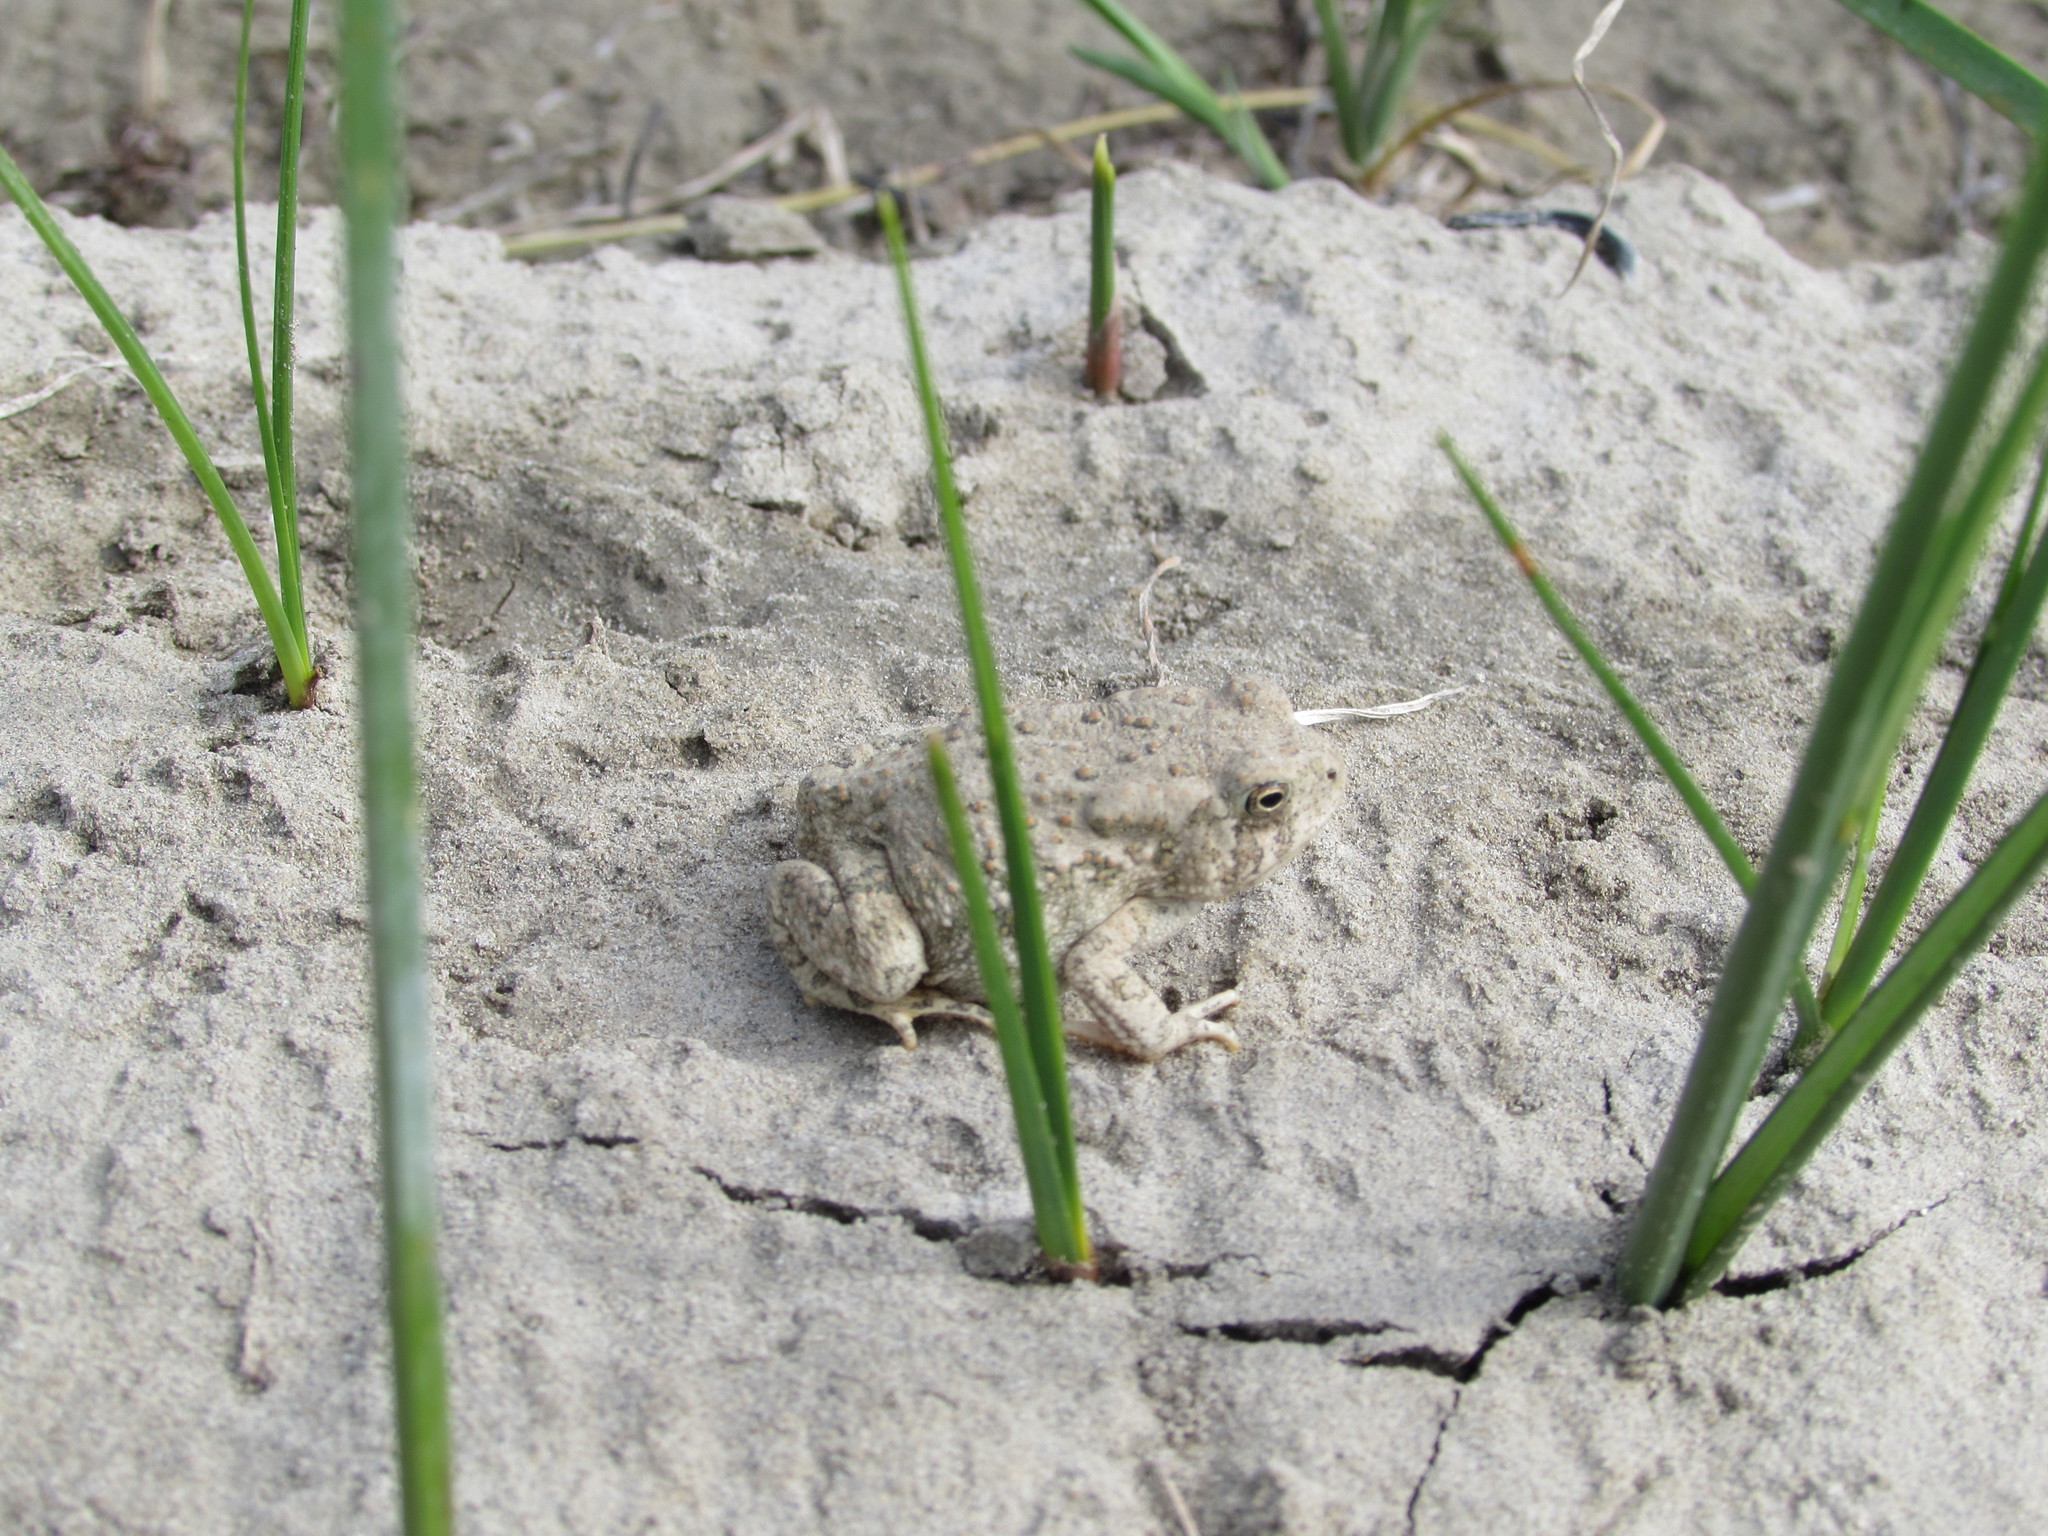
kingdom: Animalia
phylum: Chordata
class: Amphibia
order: Anura
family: Bufonidae
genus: Anaxyrus
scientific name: Anaxyrus woodhousii
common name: Woodhouse's toad
